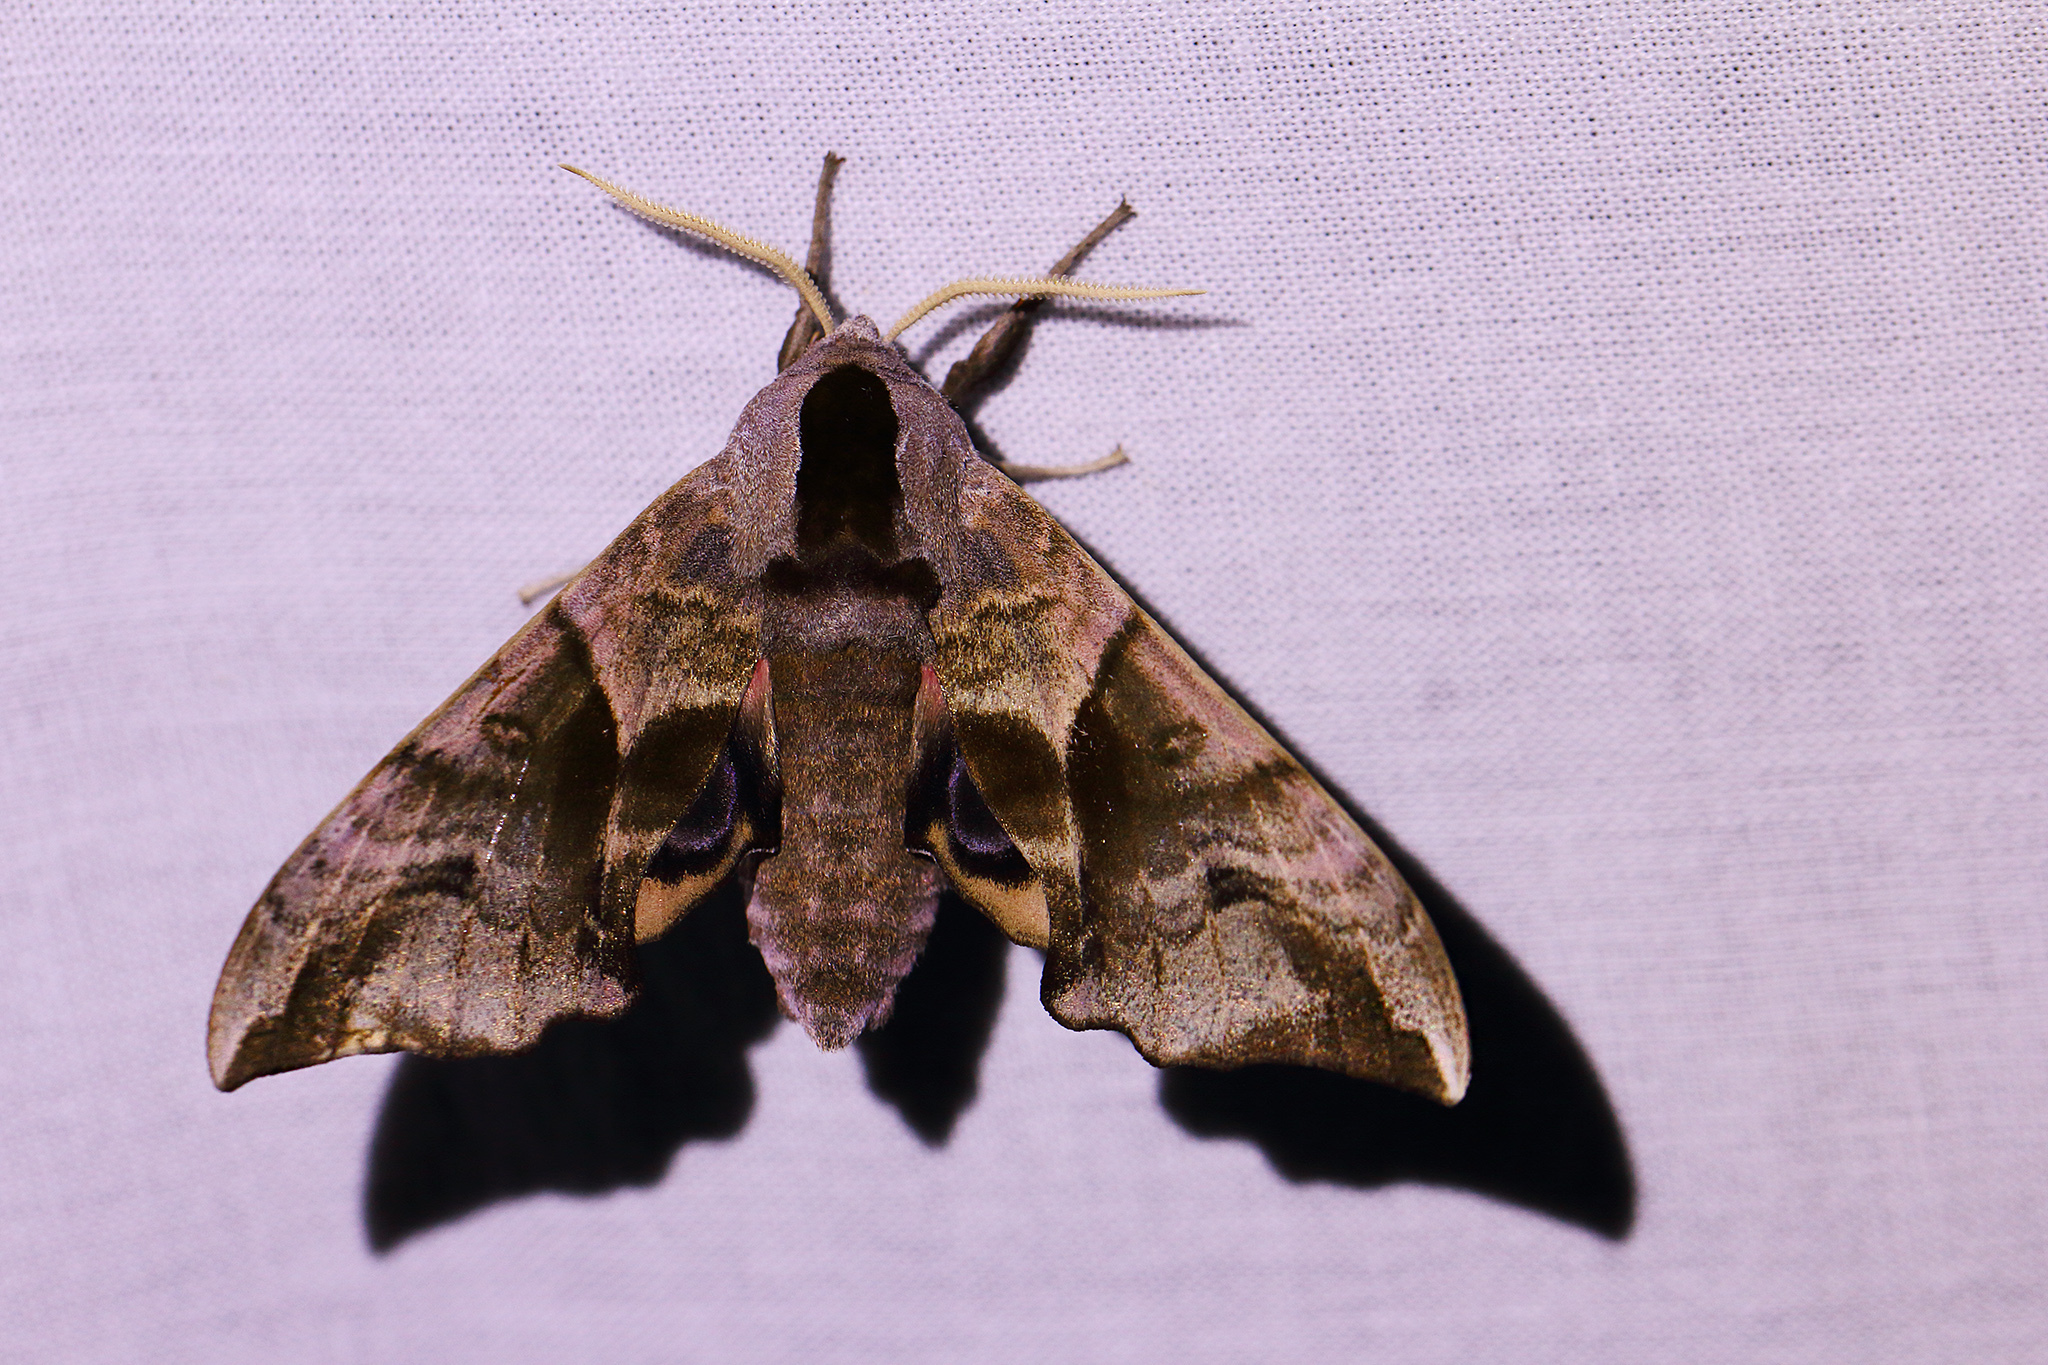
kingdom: Animalia
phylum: Arthropoda
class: Insecta
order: Lepidoptera
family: Sphingidae
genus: Smerinthus
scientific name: Smerinthus ocellata
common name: Eyed hawk-moth
